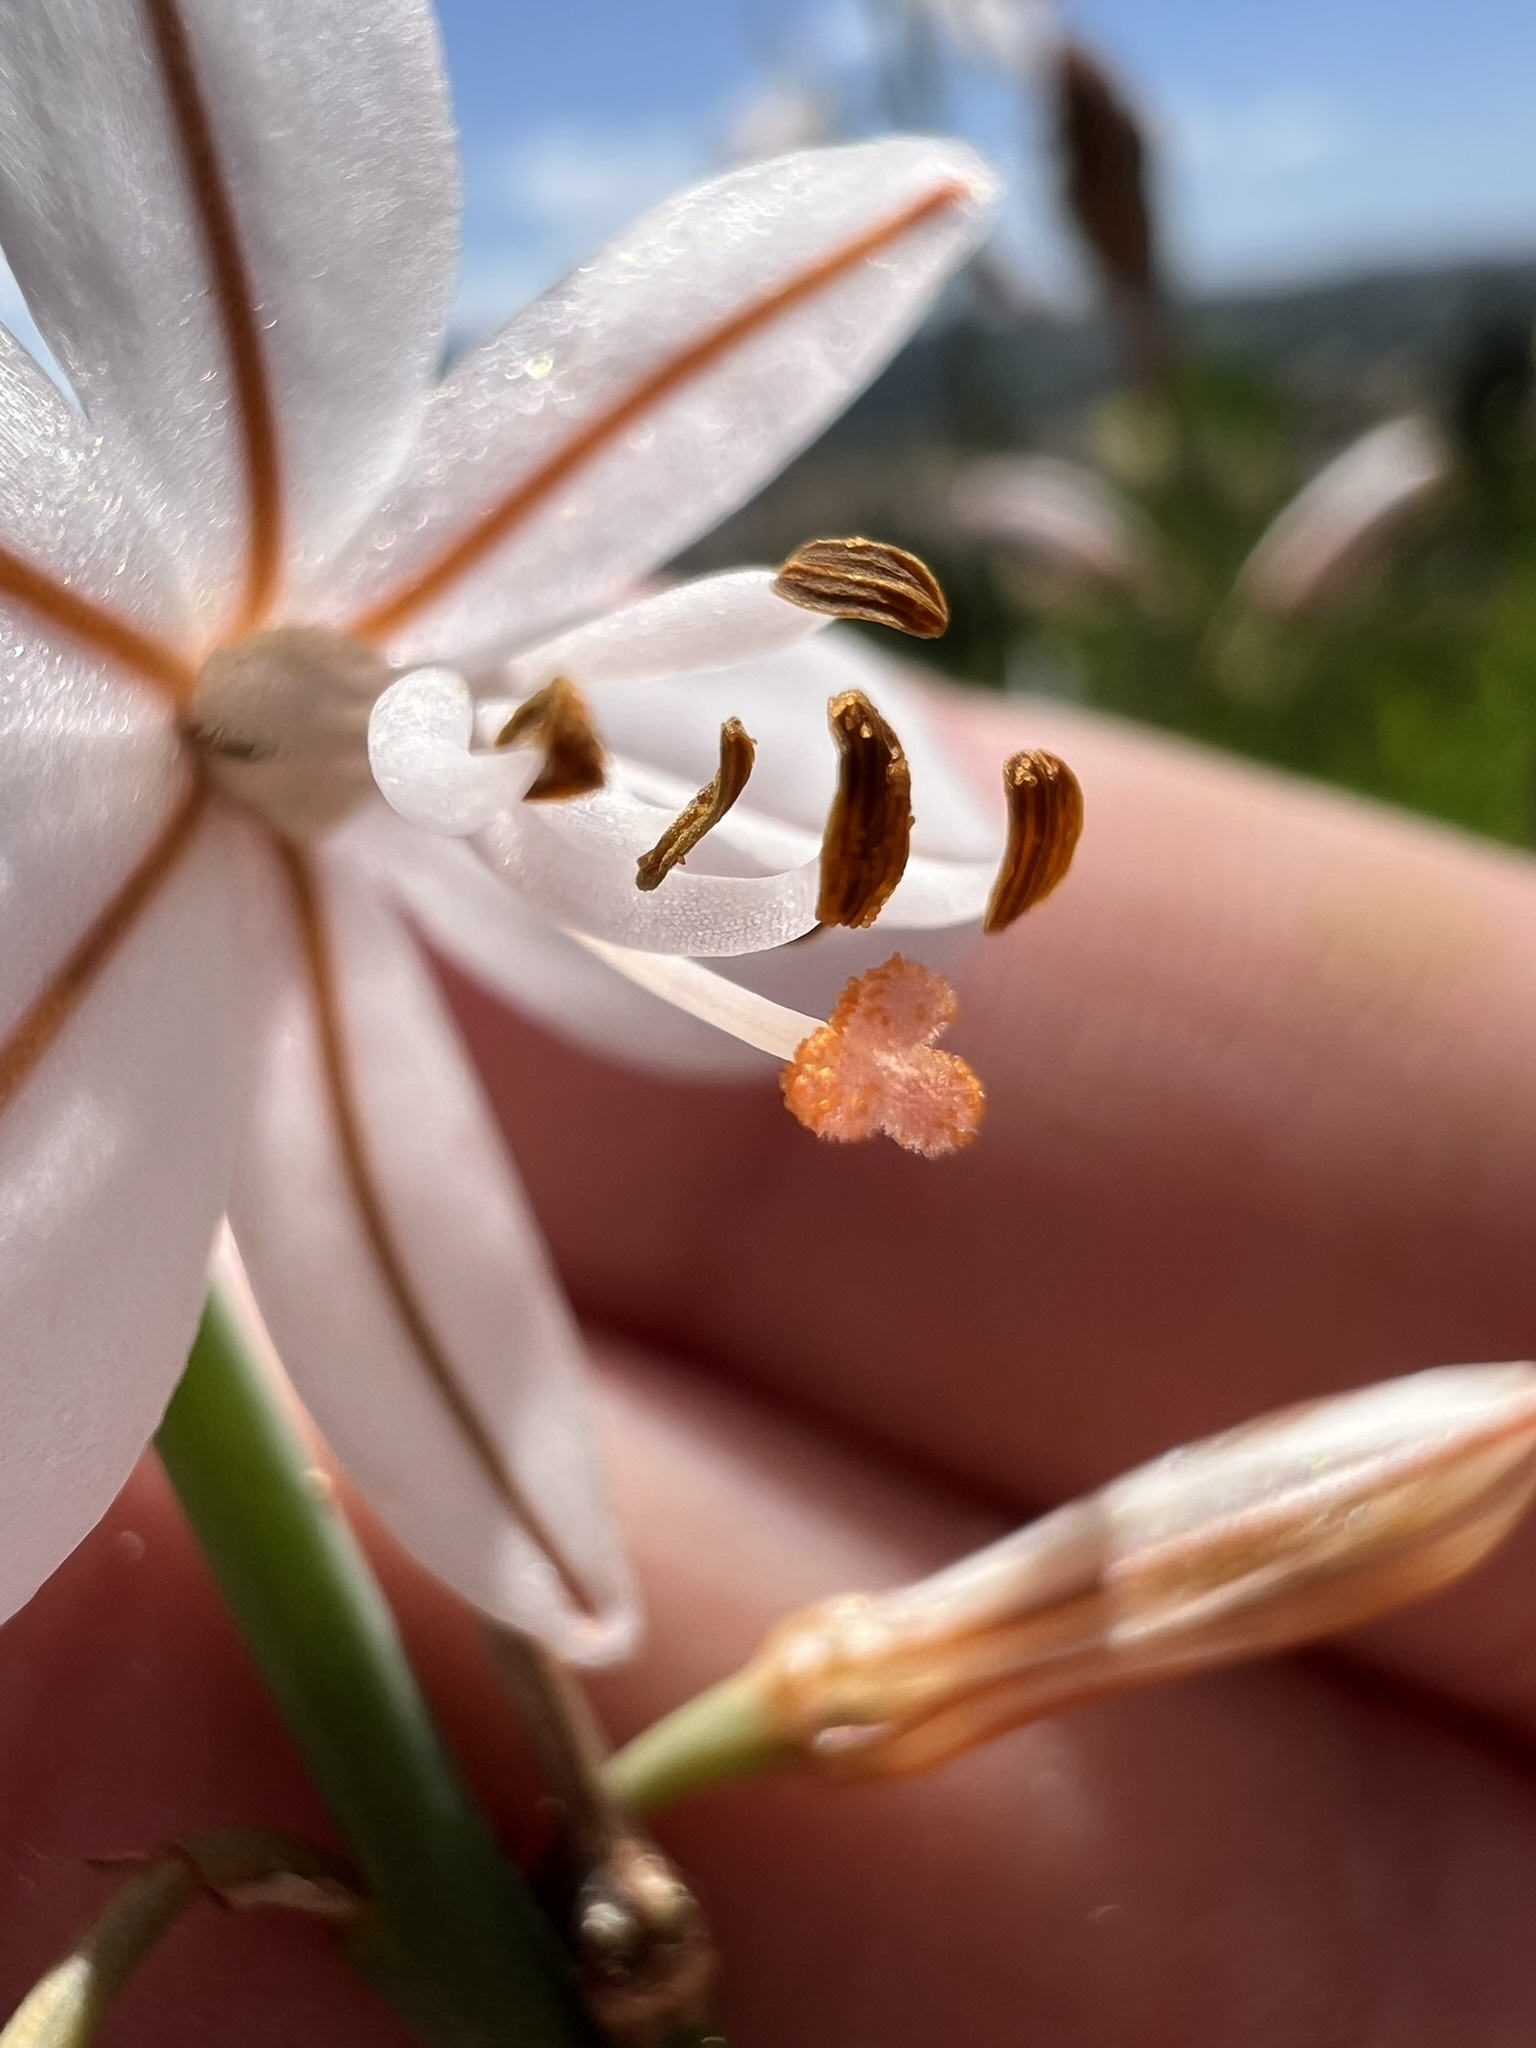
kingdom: Plantae
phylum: Tracheophyta
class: Liliopsida
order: Asparagales
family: Asphodelaceae
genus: Asphodelus
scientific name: Asphodelus fistulosus
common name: Onionweed
